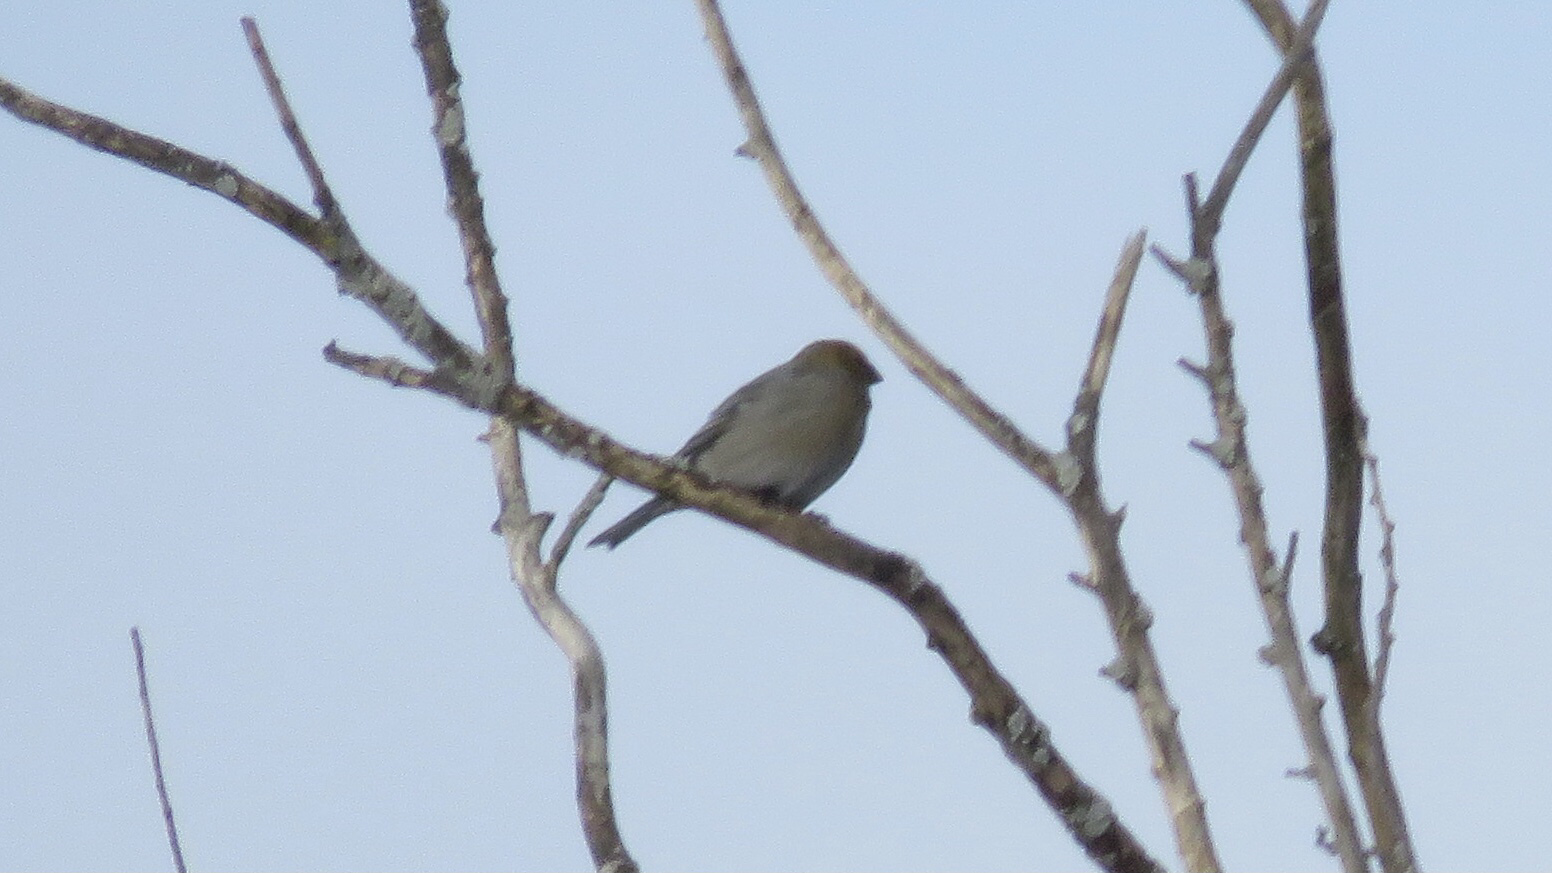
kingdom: Animalia
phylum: Chordata
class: Aves
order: Passeriformes
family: Fringillidae
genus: Pinicola
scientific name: Pinicola enucleator
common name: Pine grosbeak
